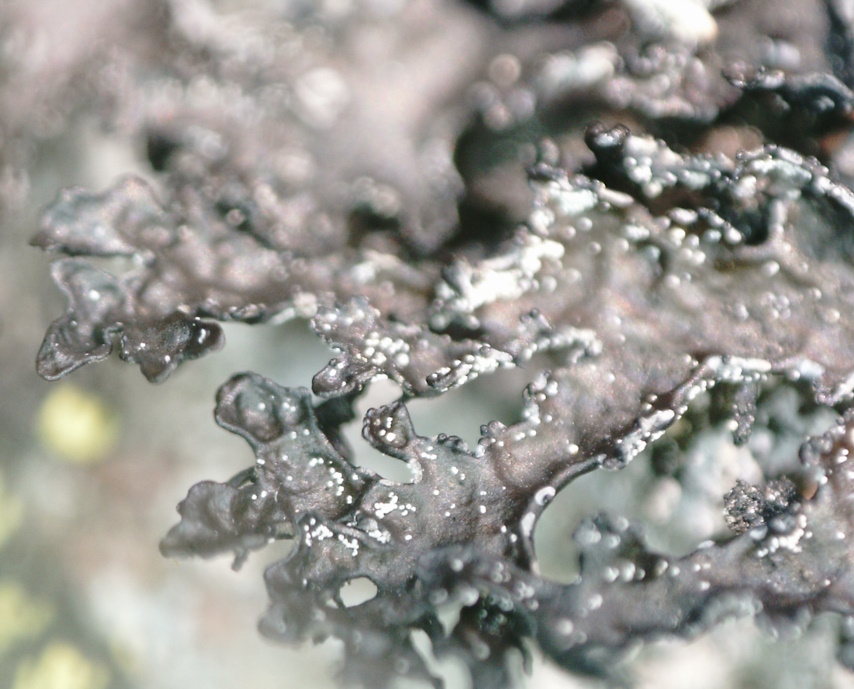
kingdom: Fungi
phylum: Ascomycota
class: Lecanoromycetes
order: Lecanorales
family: Parmeliaceae
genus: Melanelia
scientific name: Melanelia hepatizon
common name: Rimmed camouflage lichen
